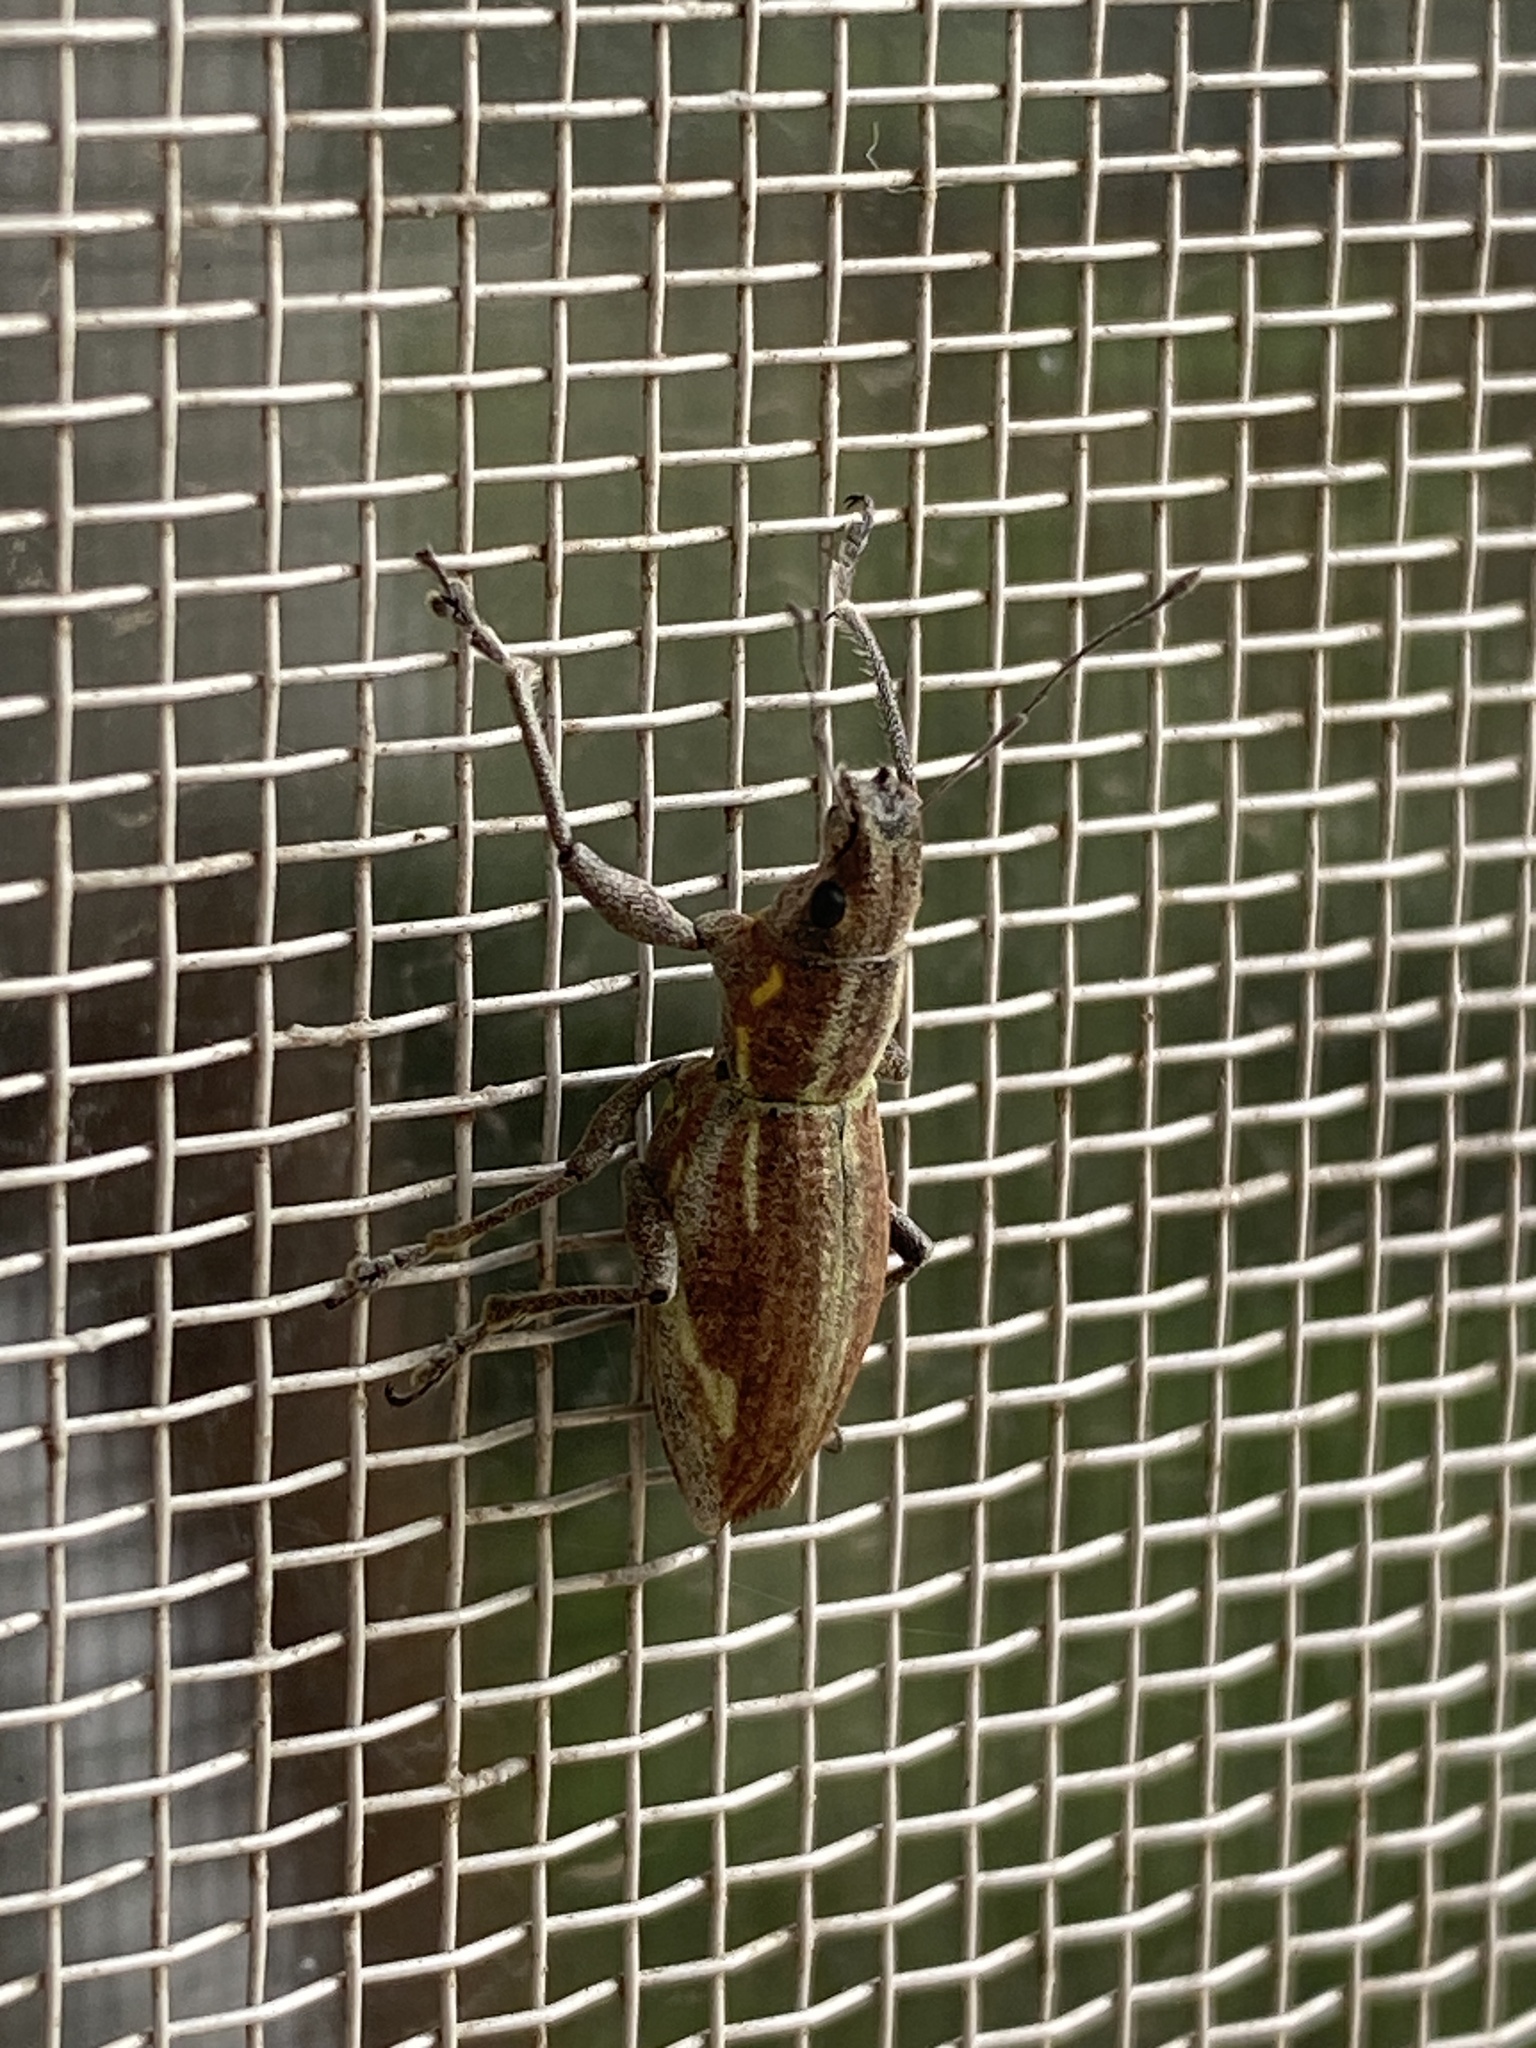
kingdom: Animalia
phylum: Arthropoda
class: Insecta
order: Coleoptera
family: Curculionidae
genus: Naupactus
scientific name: Naupactus xanthographus
